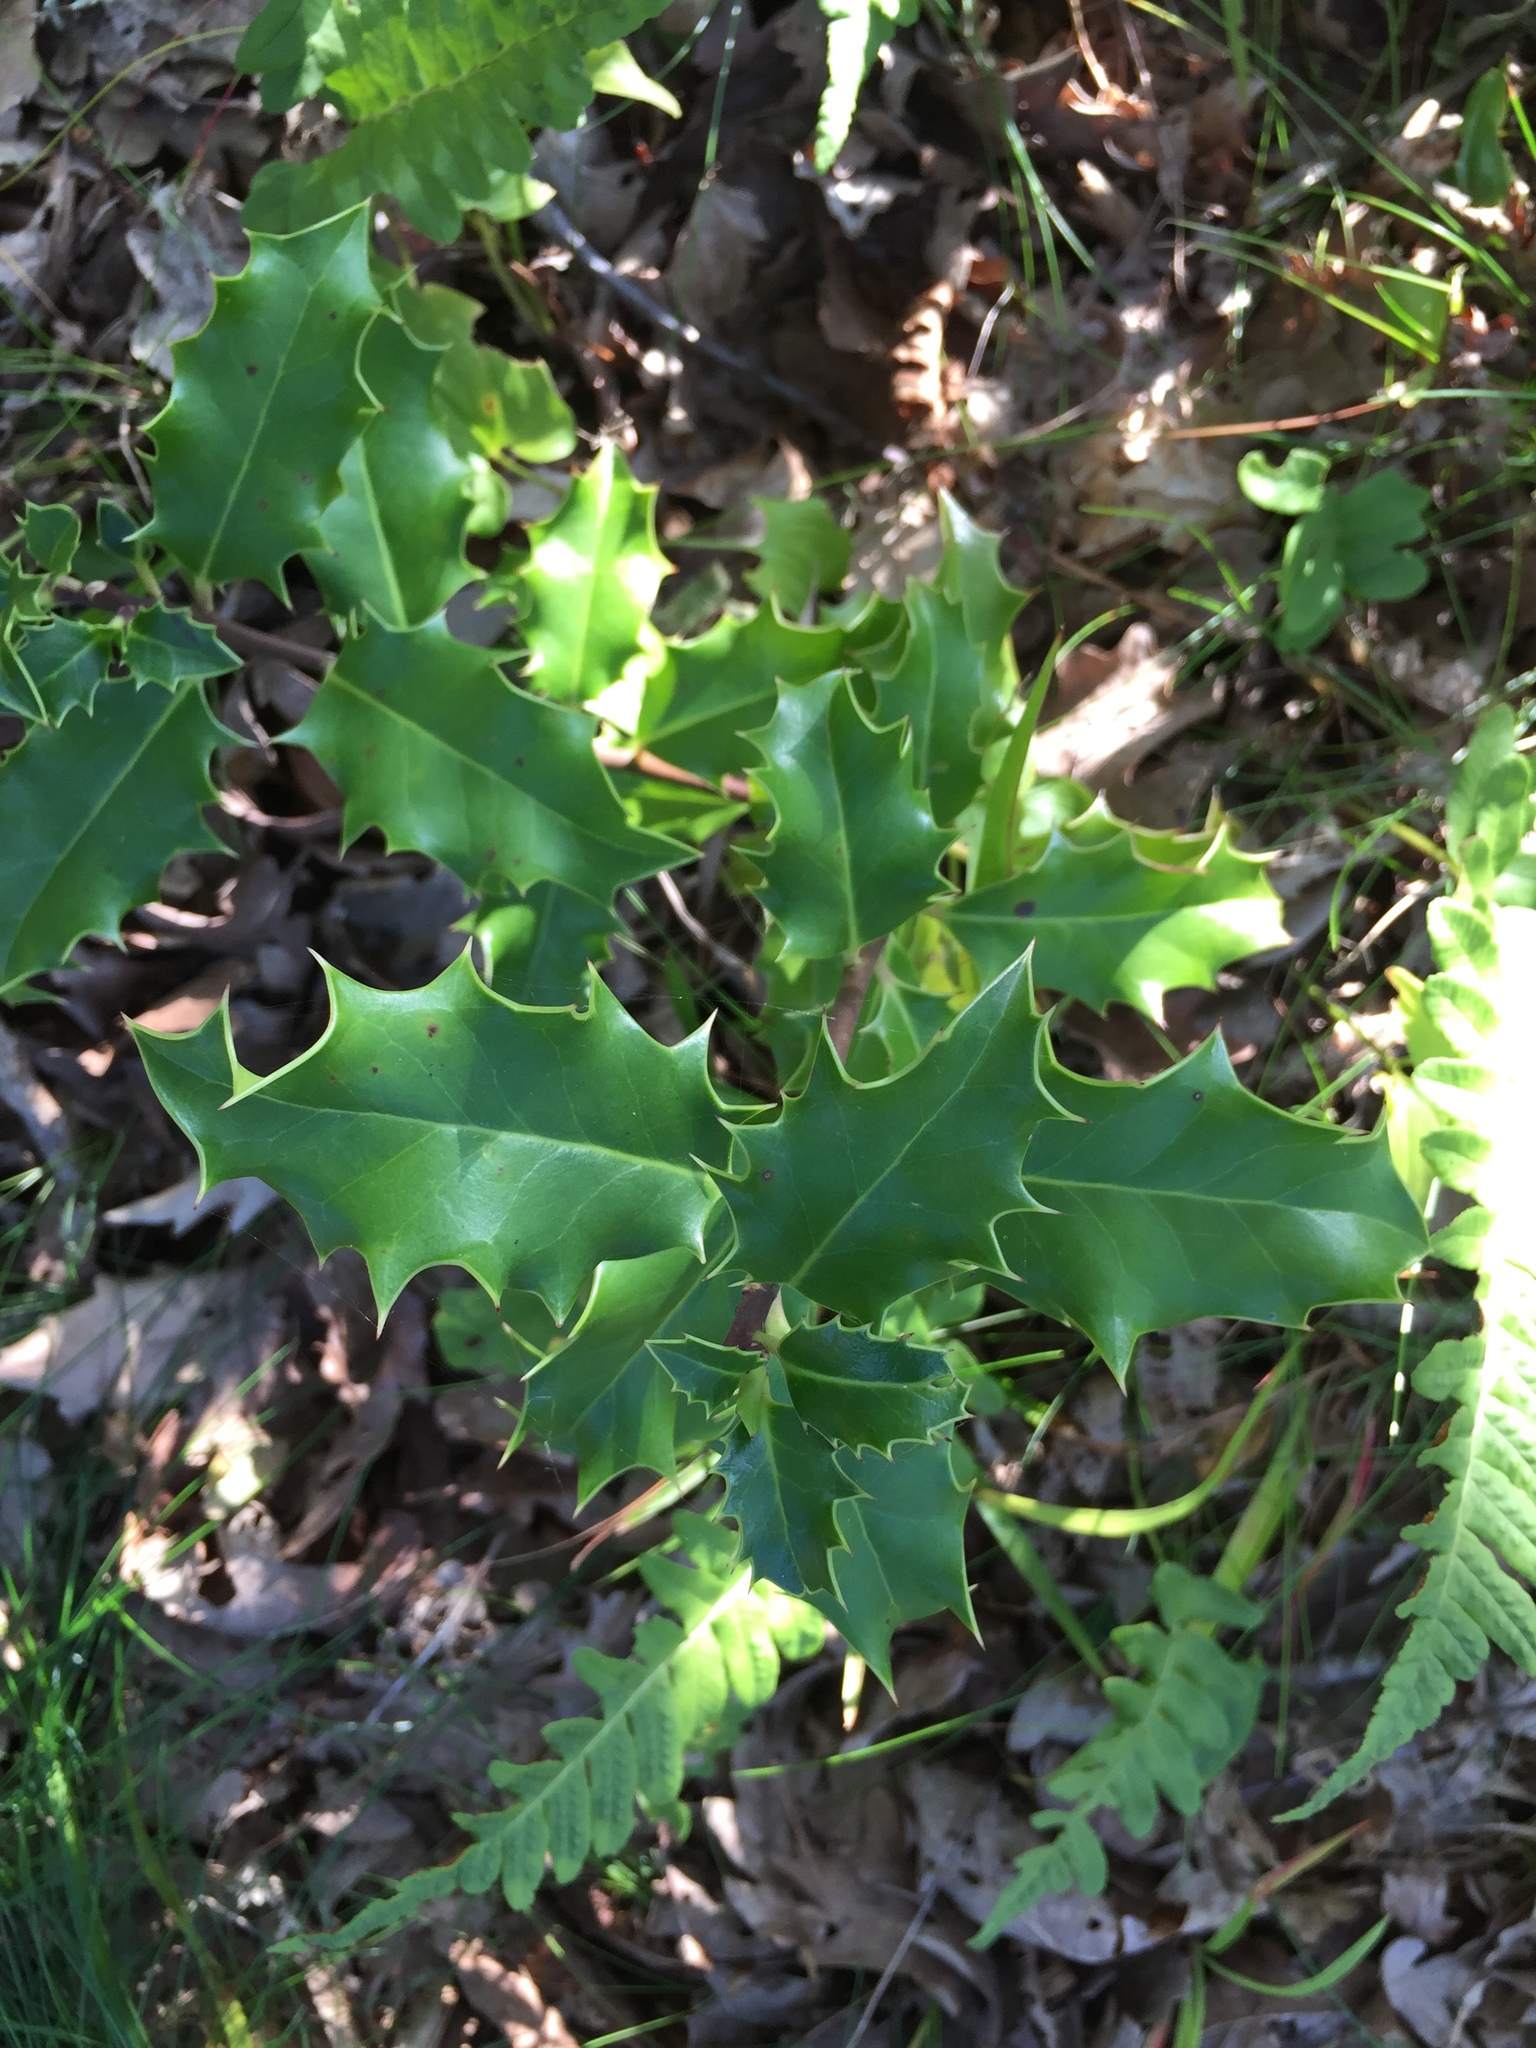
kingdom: Plantae
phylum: Tracheophyta
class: Magnoliopsida
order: Aquifoliales
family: Aquifoliaceae
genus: Ilex
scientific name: Ilex aquifolium
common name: English holly
